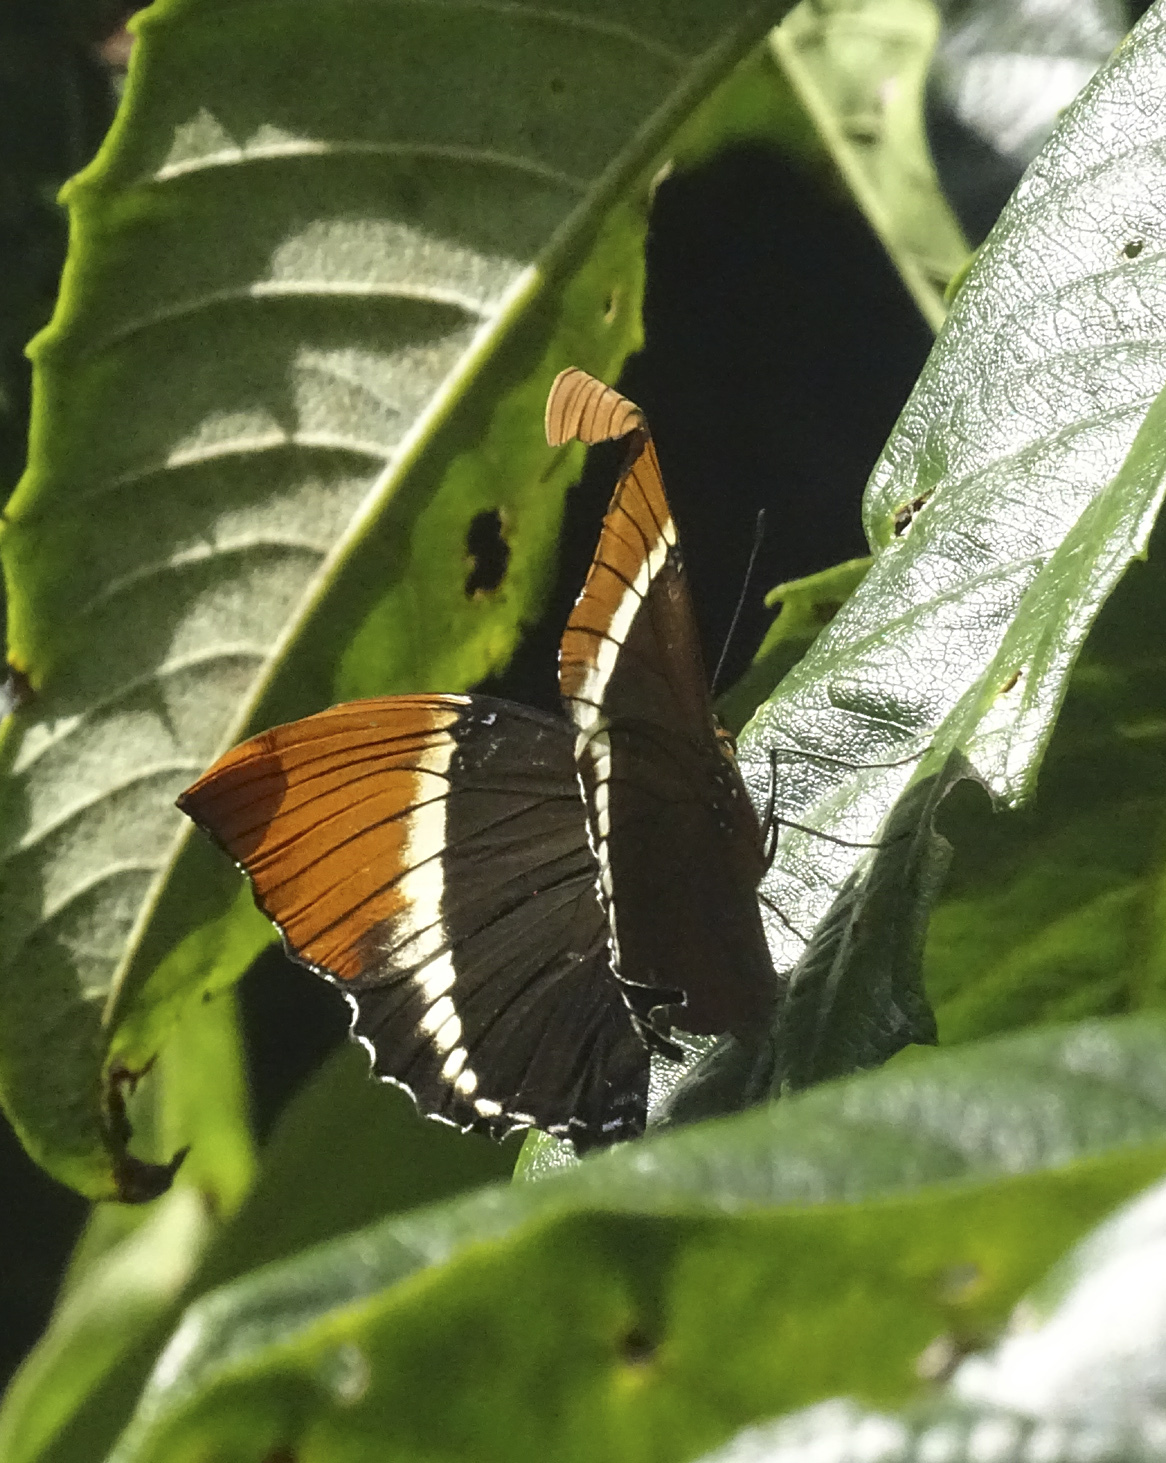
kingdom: Animalia
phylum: Arthropoda
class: Insecta
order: Lepidoptera
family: Nymphalidae
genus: Siproeta
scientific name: Siproeta epaphus
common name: Rusty-tipped page
